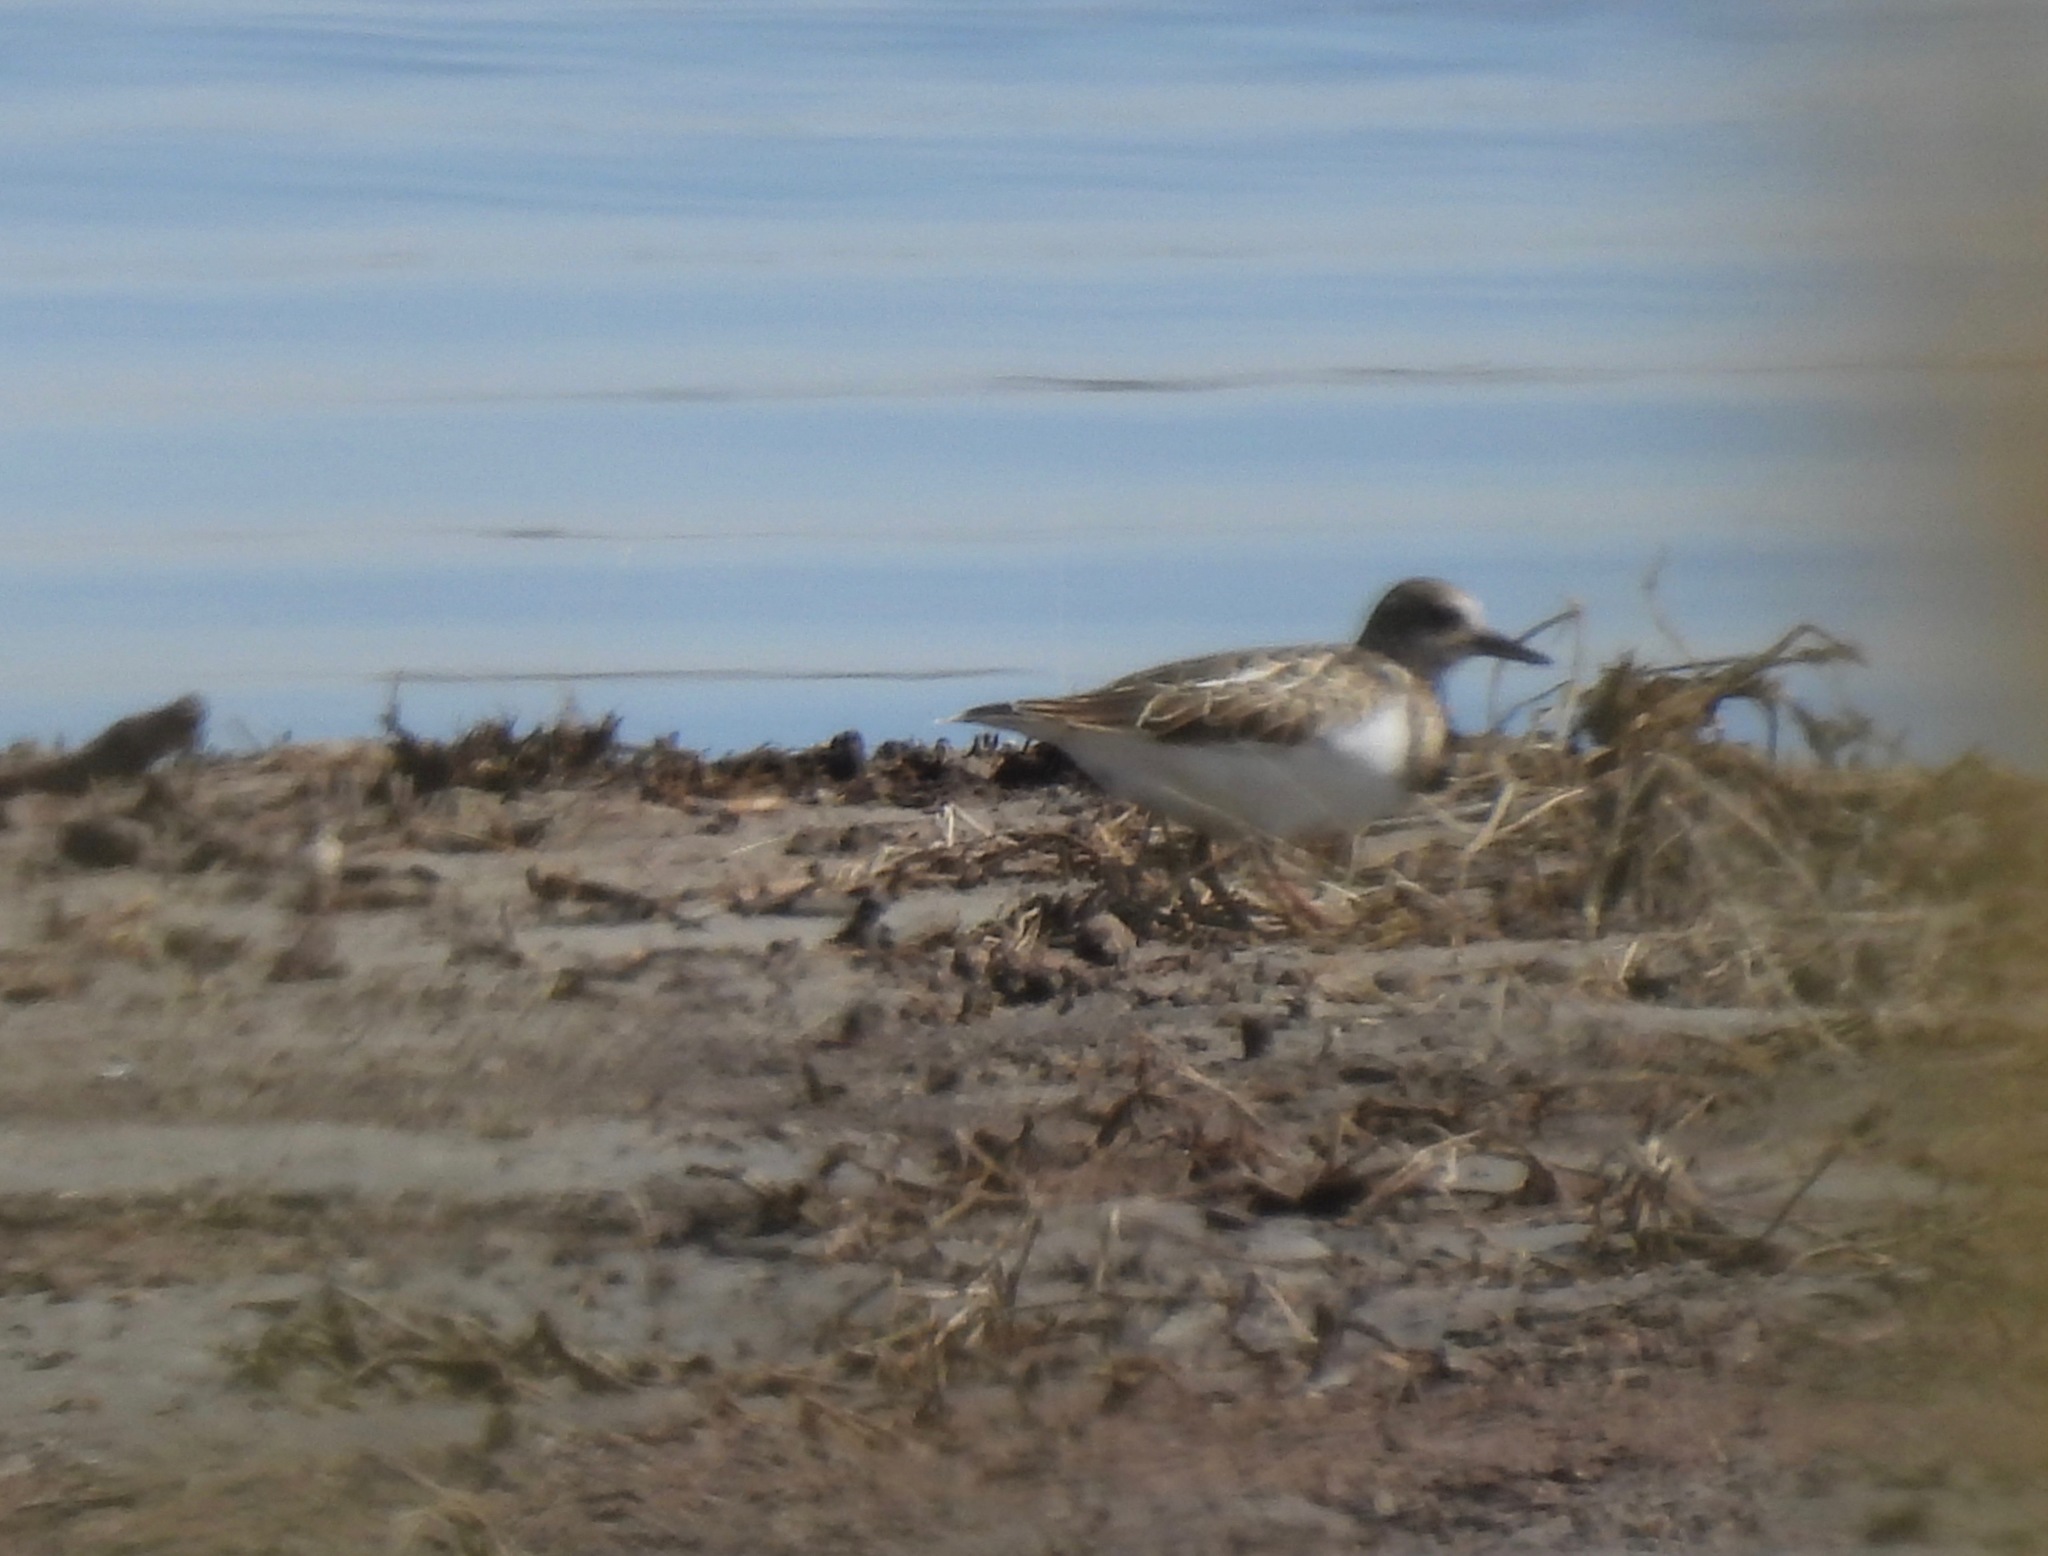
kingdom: Animalia
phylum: Chordata
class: Aves
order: Charadriiformes
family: Scolopacidae
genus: Arenaria
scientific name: Arenaria interpres
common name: Ruddy turnstone
